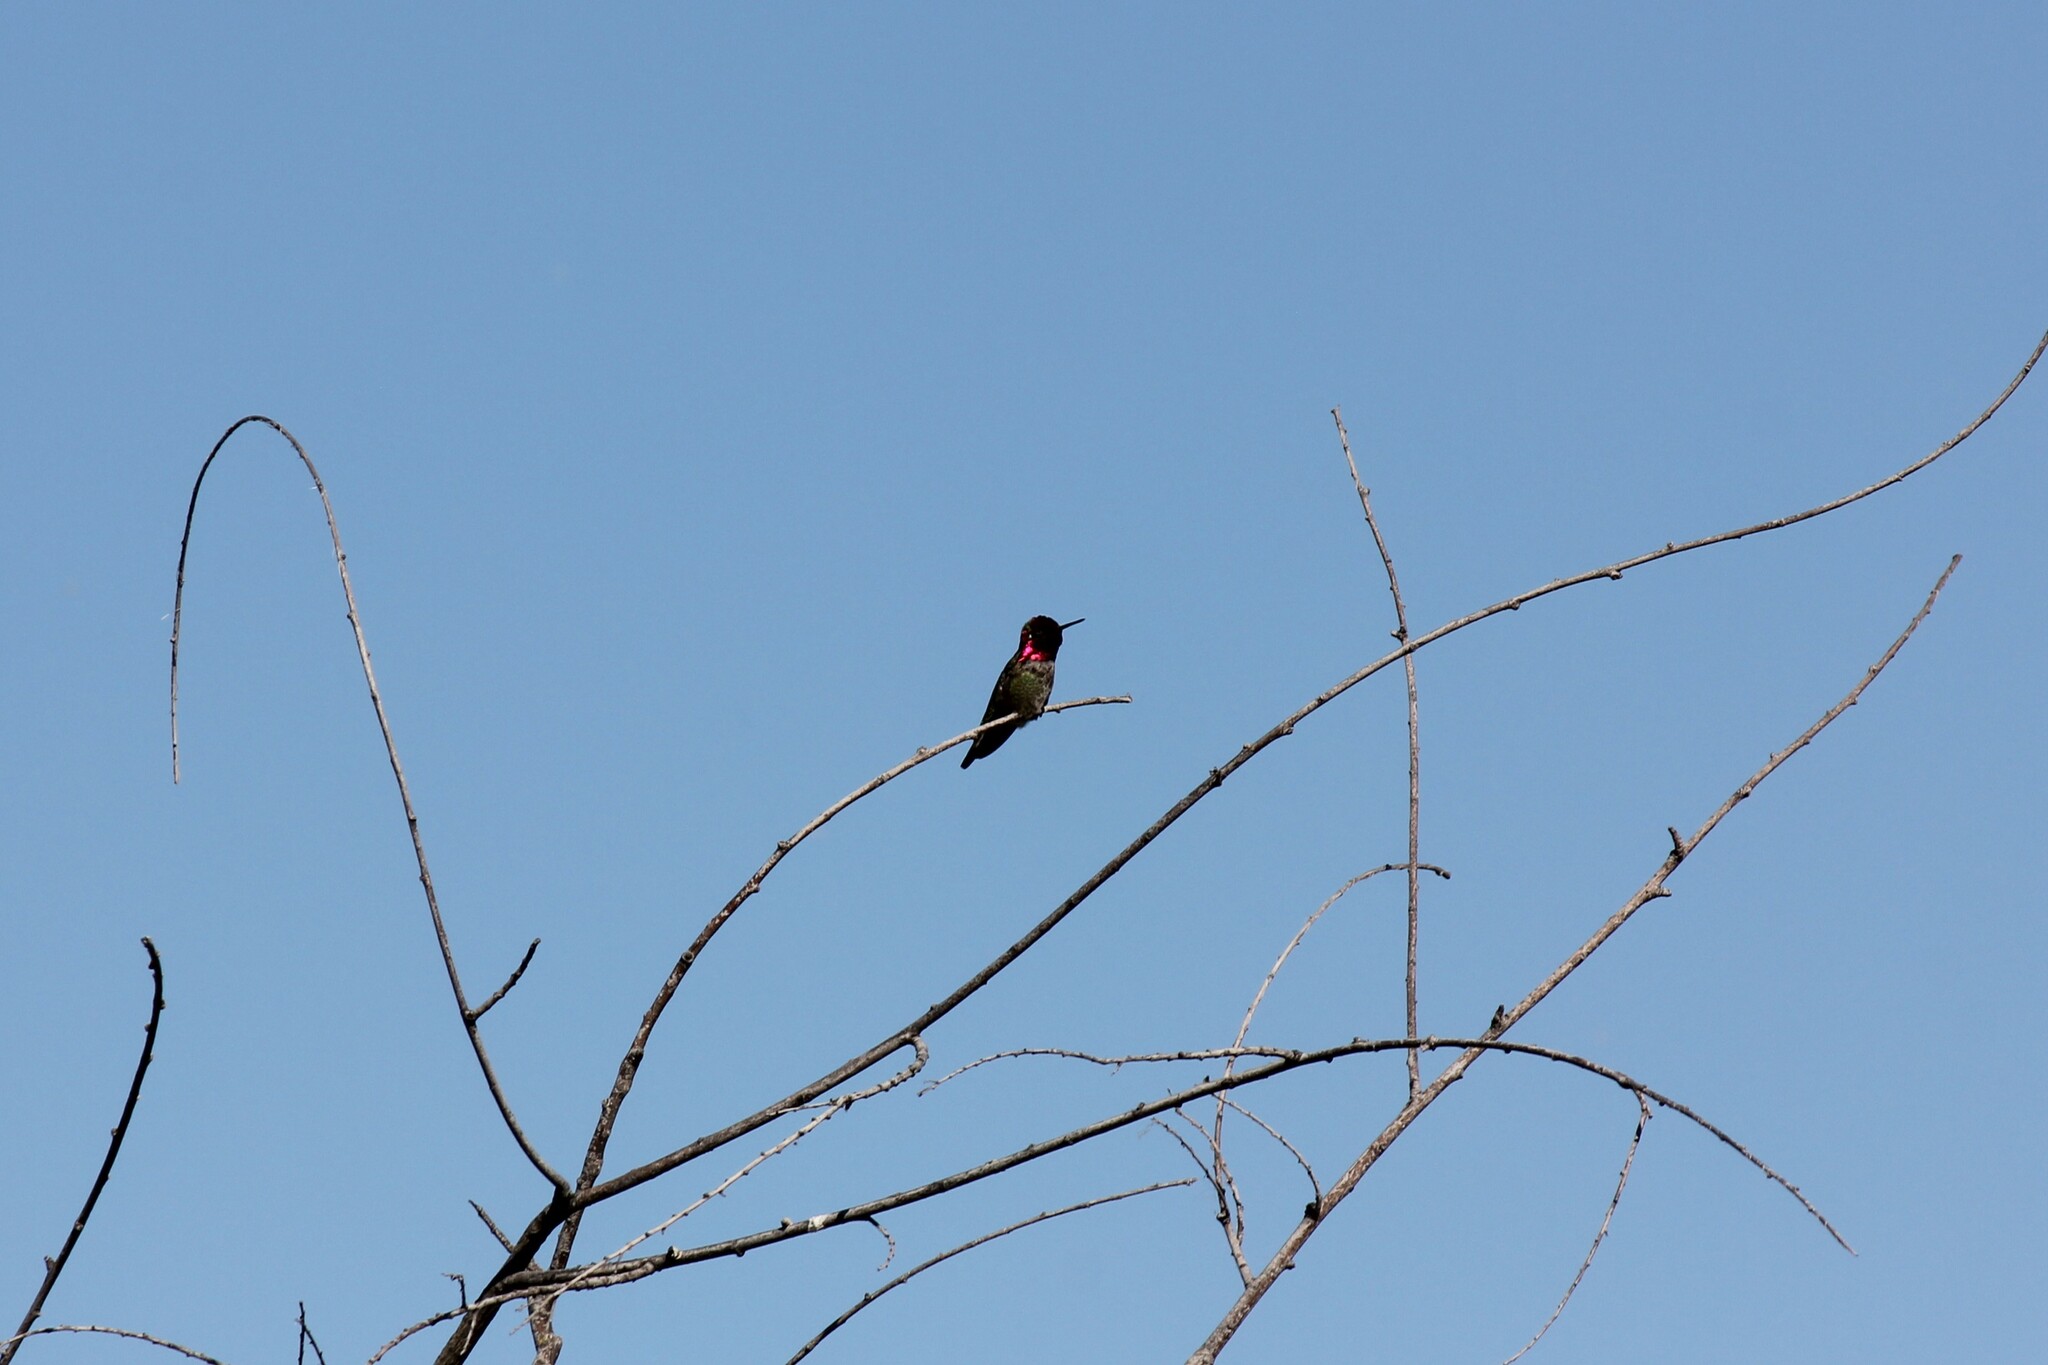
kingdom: Animalia
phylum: Chordata
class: Aves
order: Apodiformes
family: Trochilidae
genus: Calypte
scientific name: Calypte anna
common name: Anna's hummingbird
